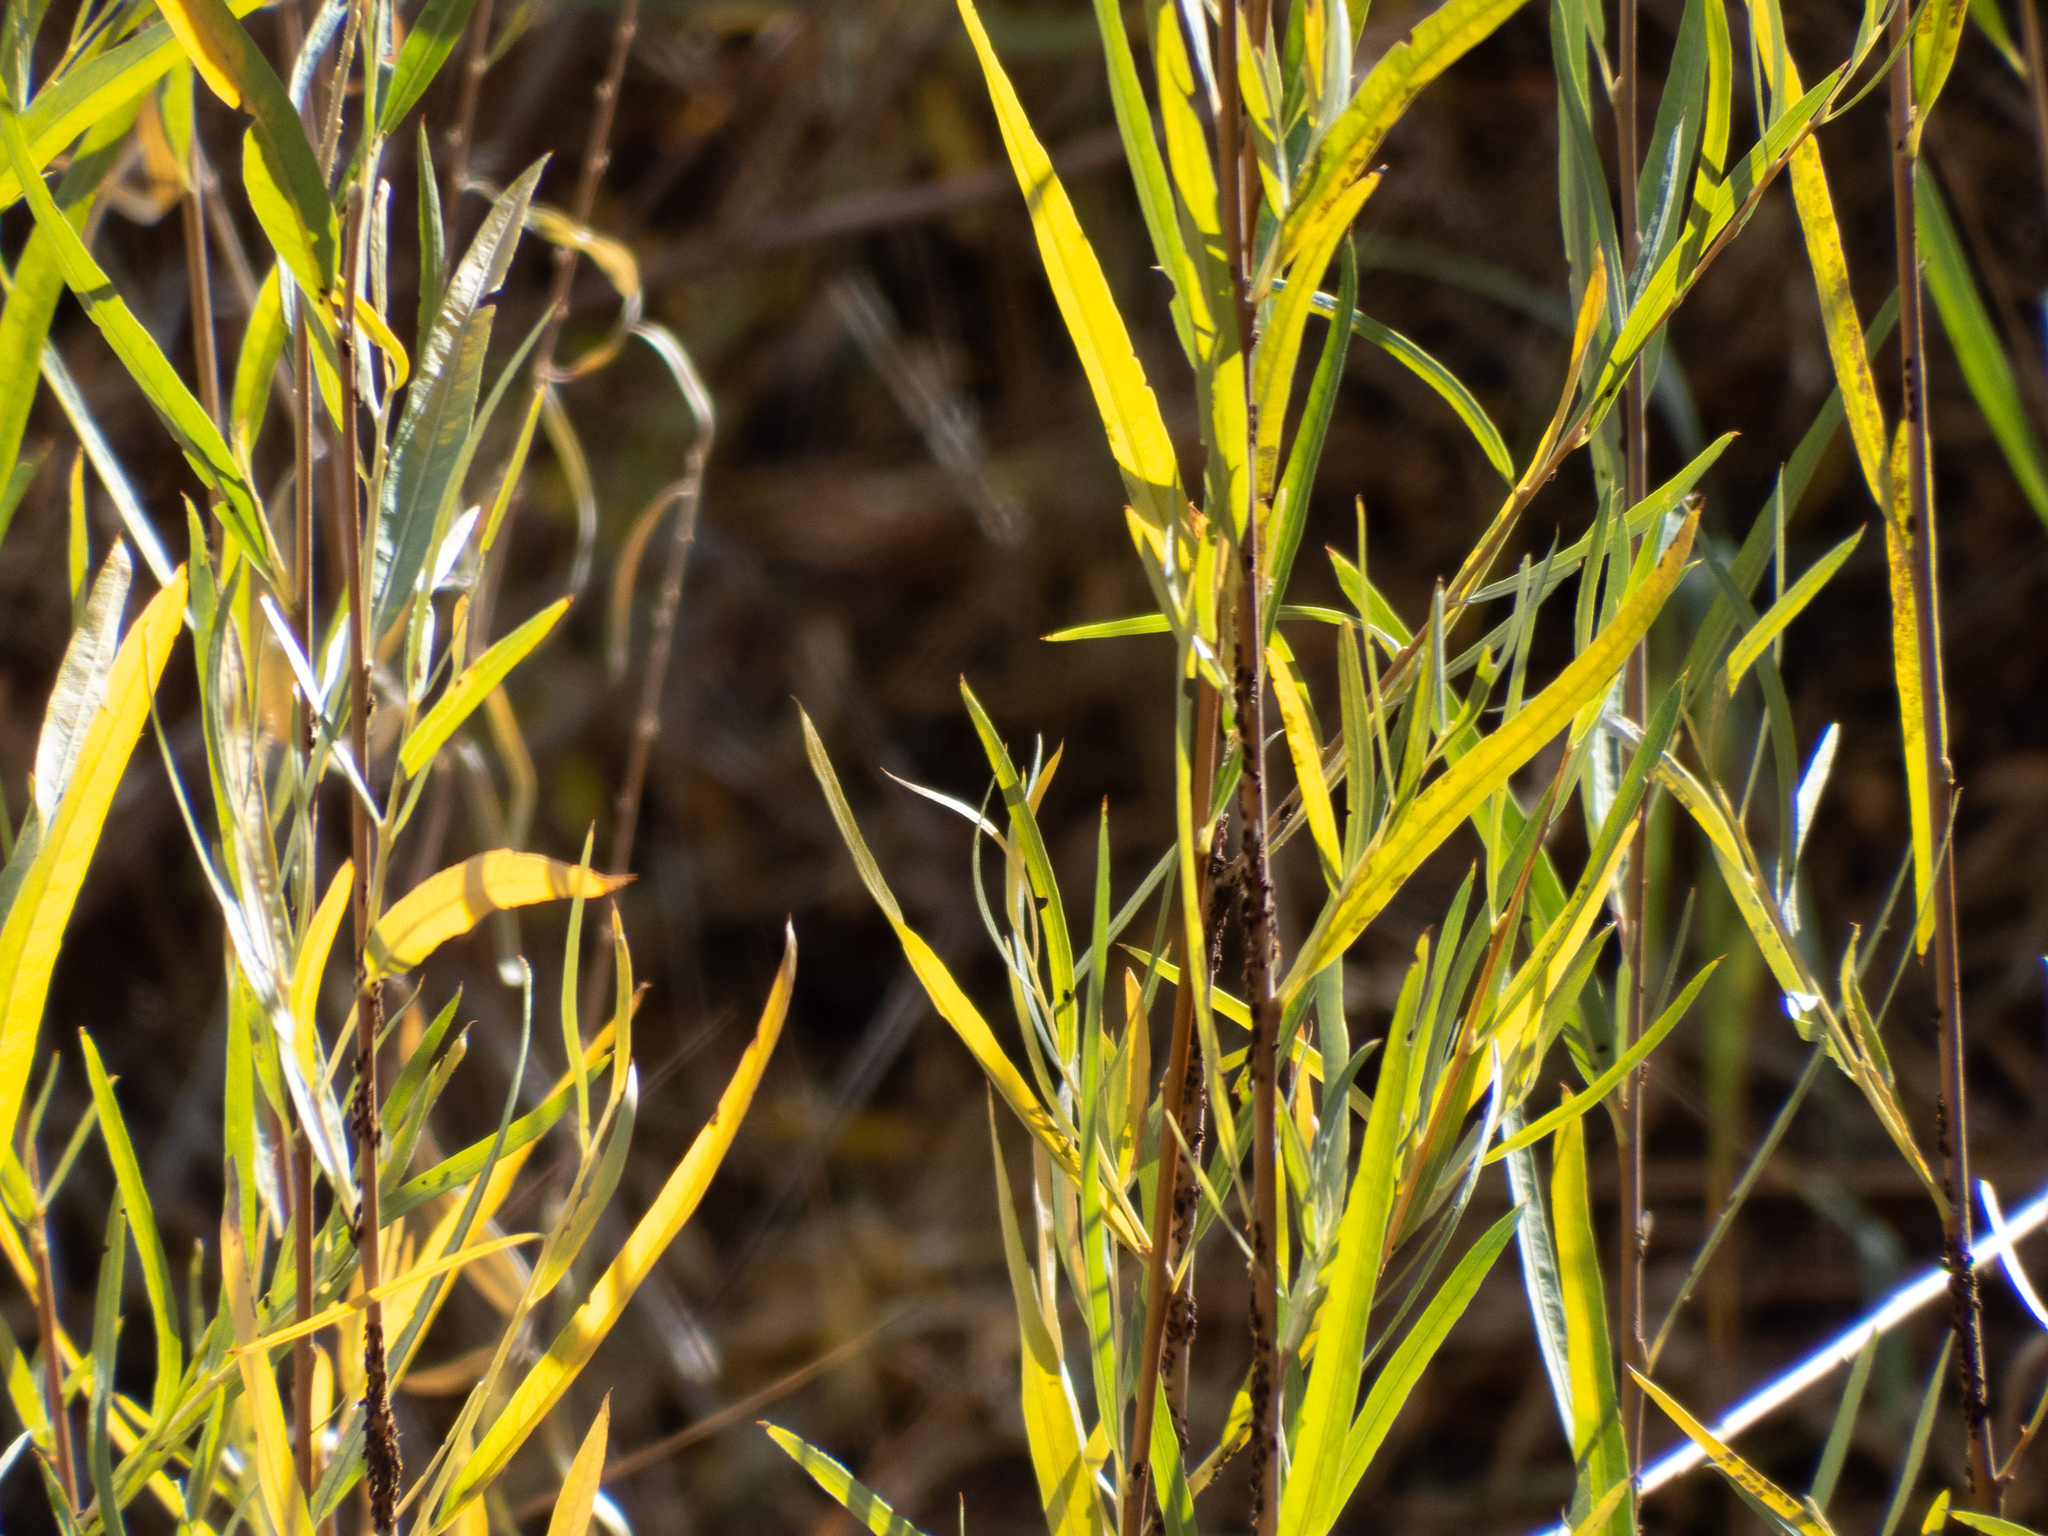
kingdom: Plantae
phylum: Tracheophyta
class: Magnoliopsida
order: Malpighiales
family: Salicaceae
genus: Salix
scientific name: Salix exigua
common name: Coyote willow
